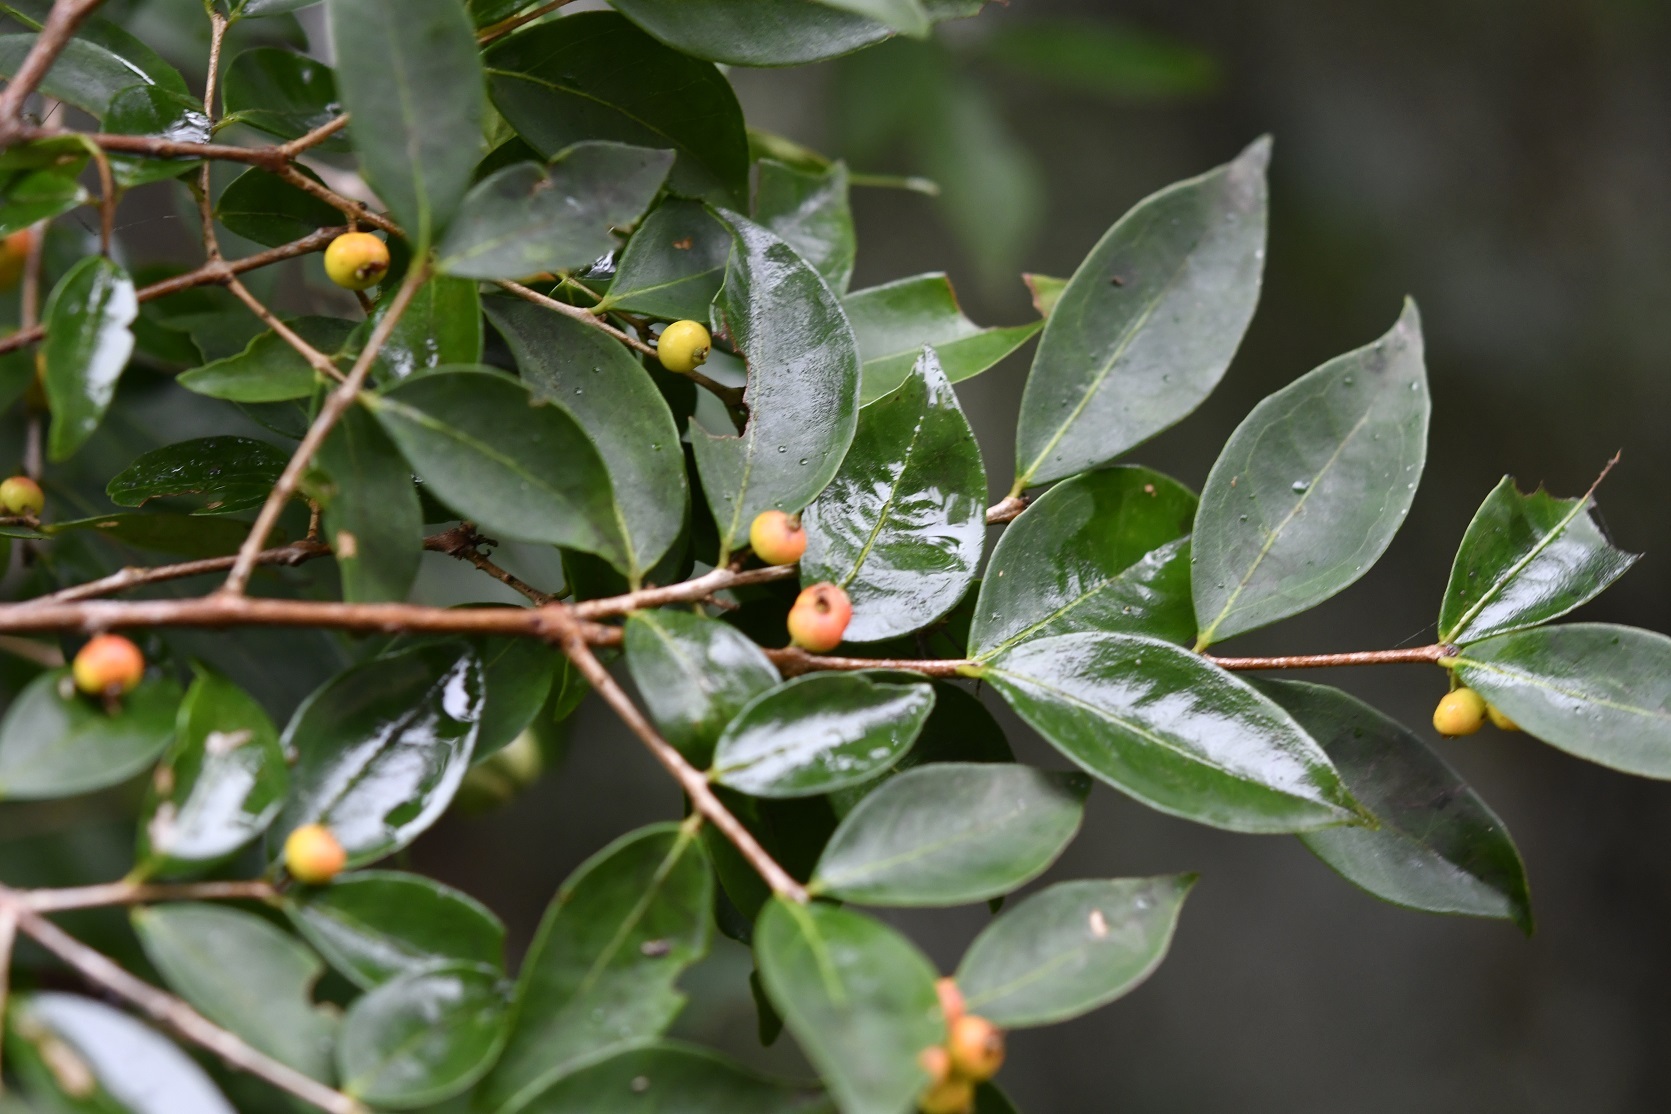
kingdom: Plantae
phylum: Tracheophyta
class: Magnoliopsida
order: Myrtales
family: Myrtaceae
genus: Eugenia
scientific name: Eugenia capuli
